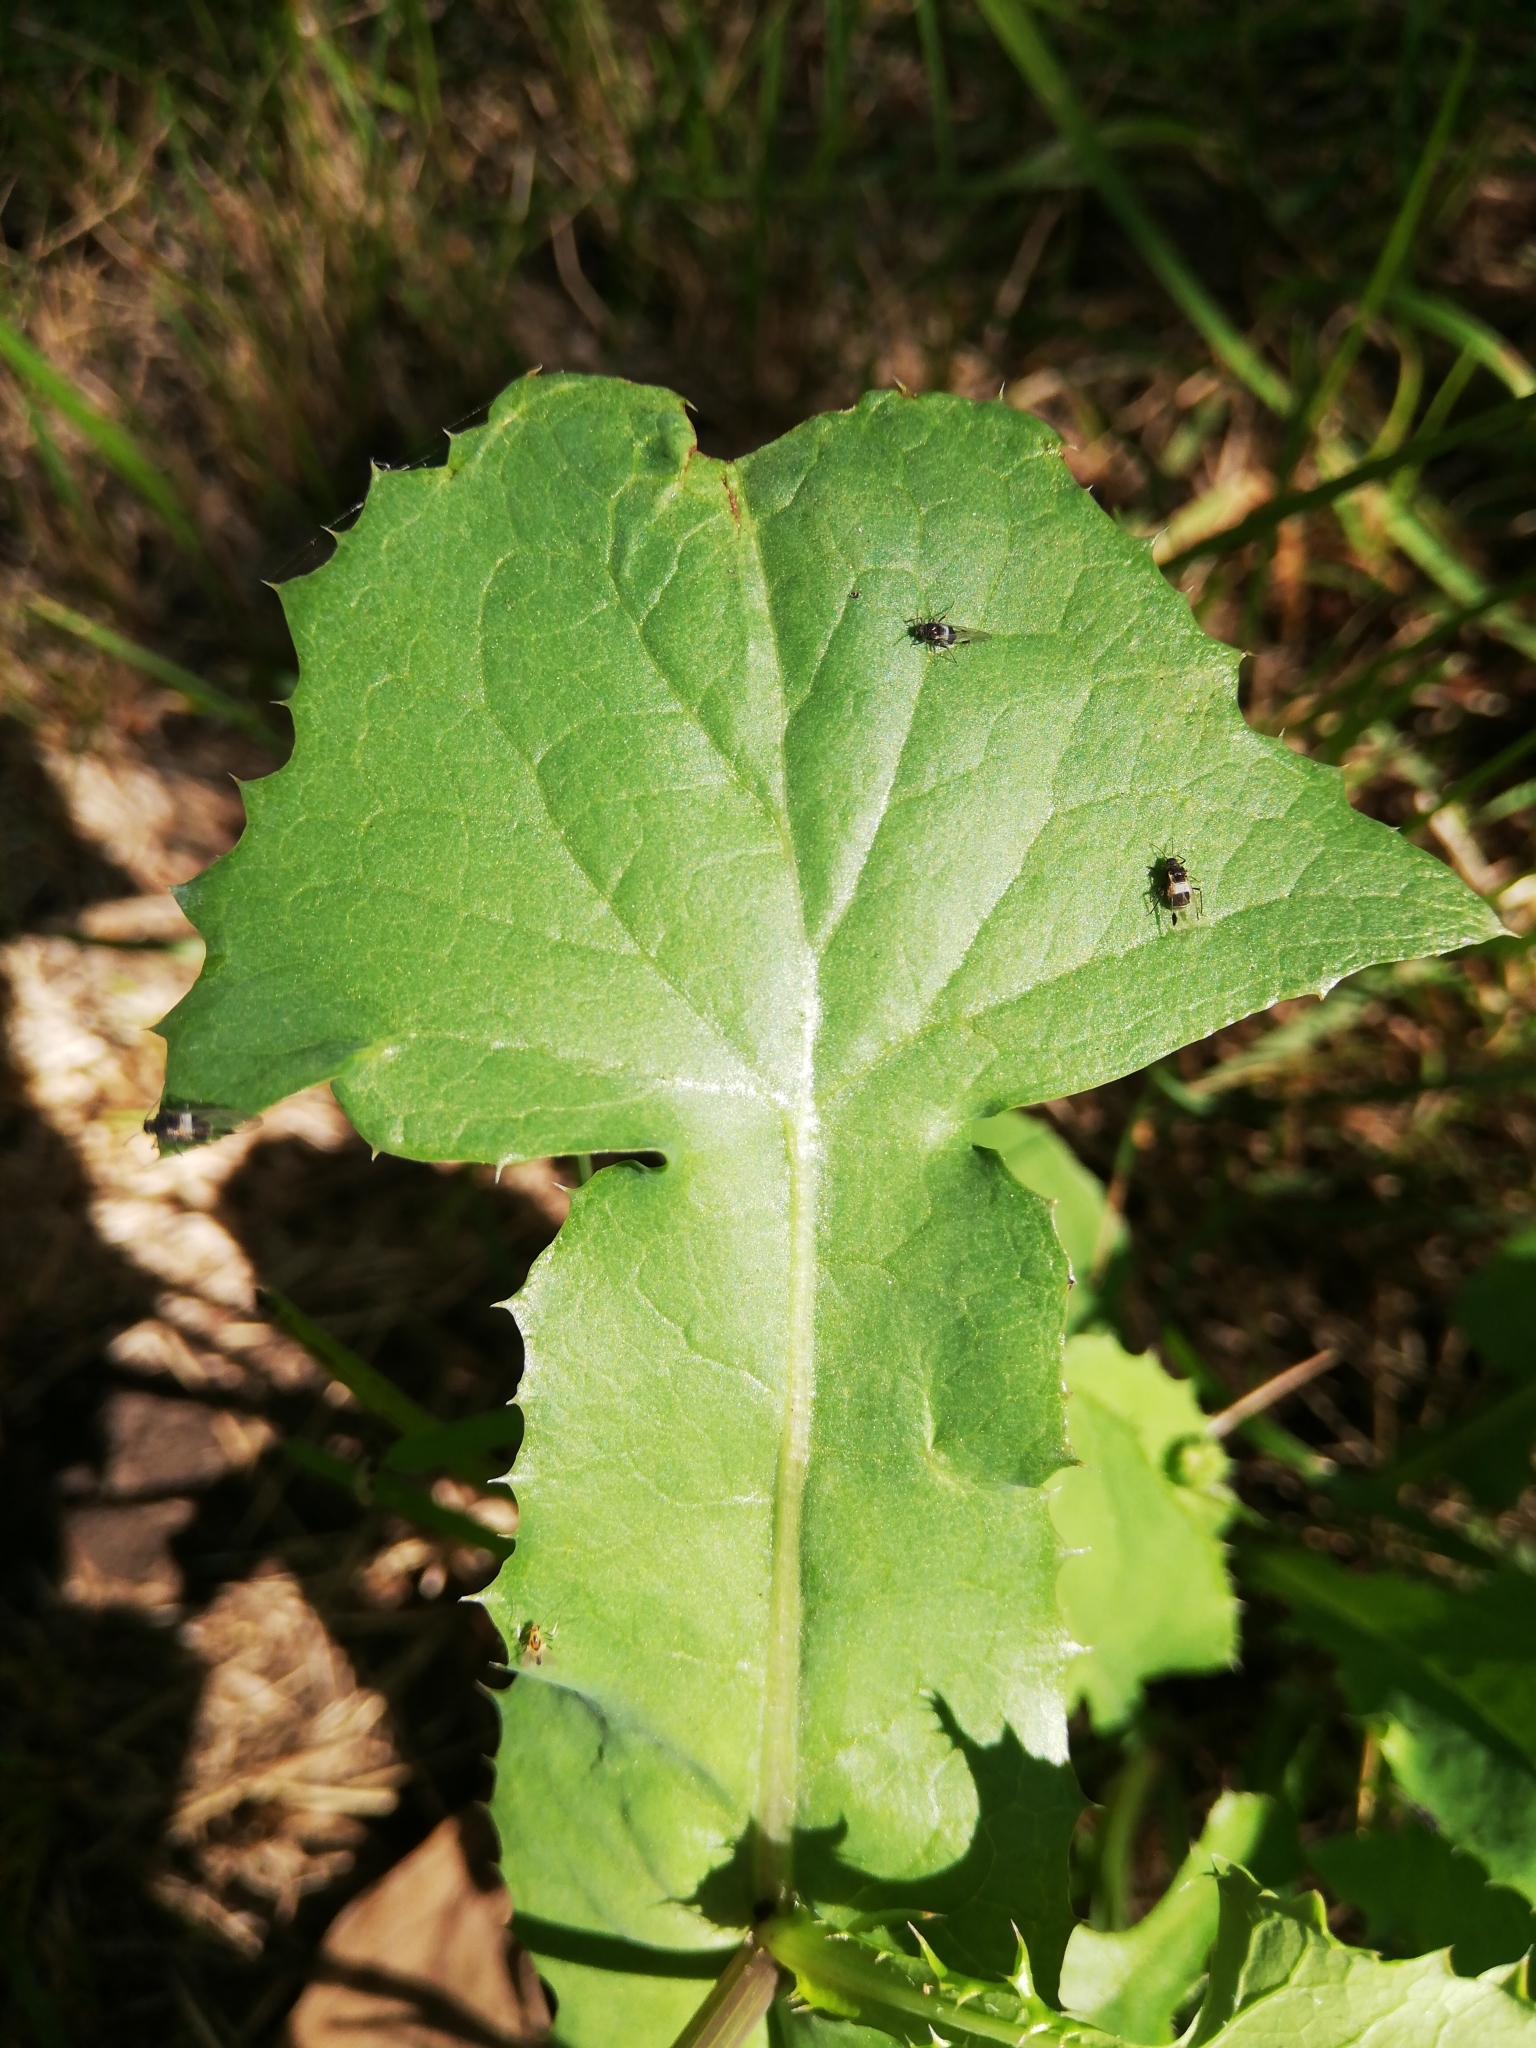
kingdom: Plantae
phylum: Tracheophyta
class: Magnoliopsida
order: Asterales
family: Asteraceae
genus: Sonchus
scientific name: Sonchus oleraceus
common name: Common sowthistle
